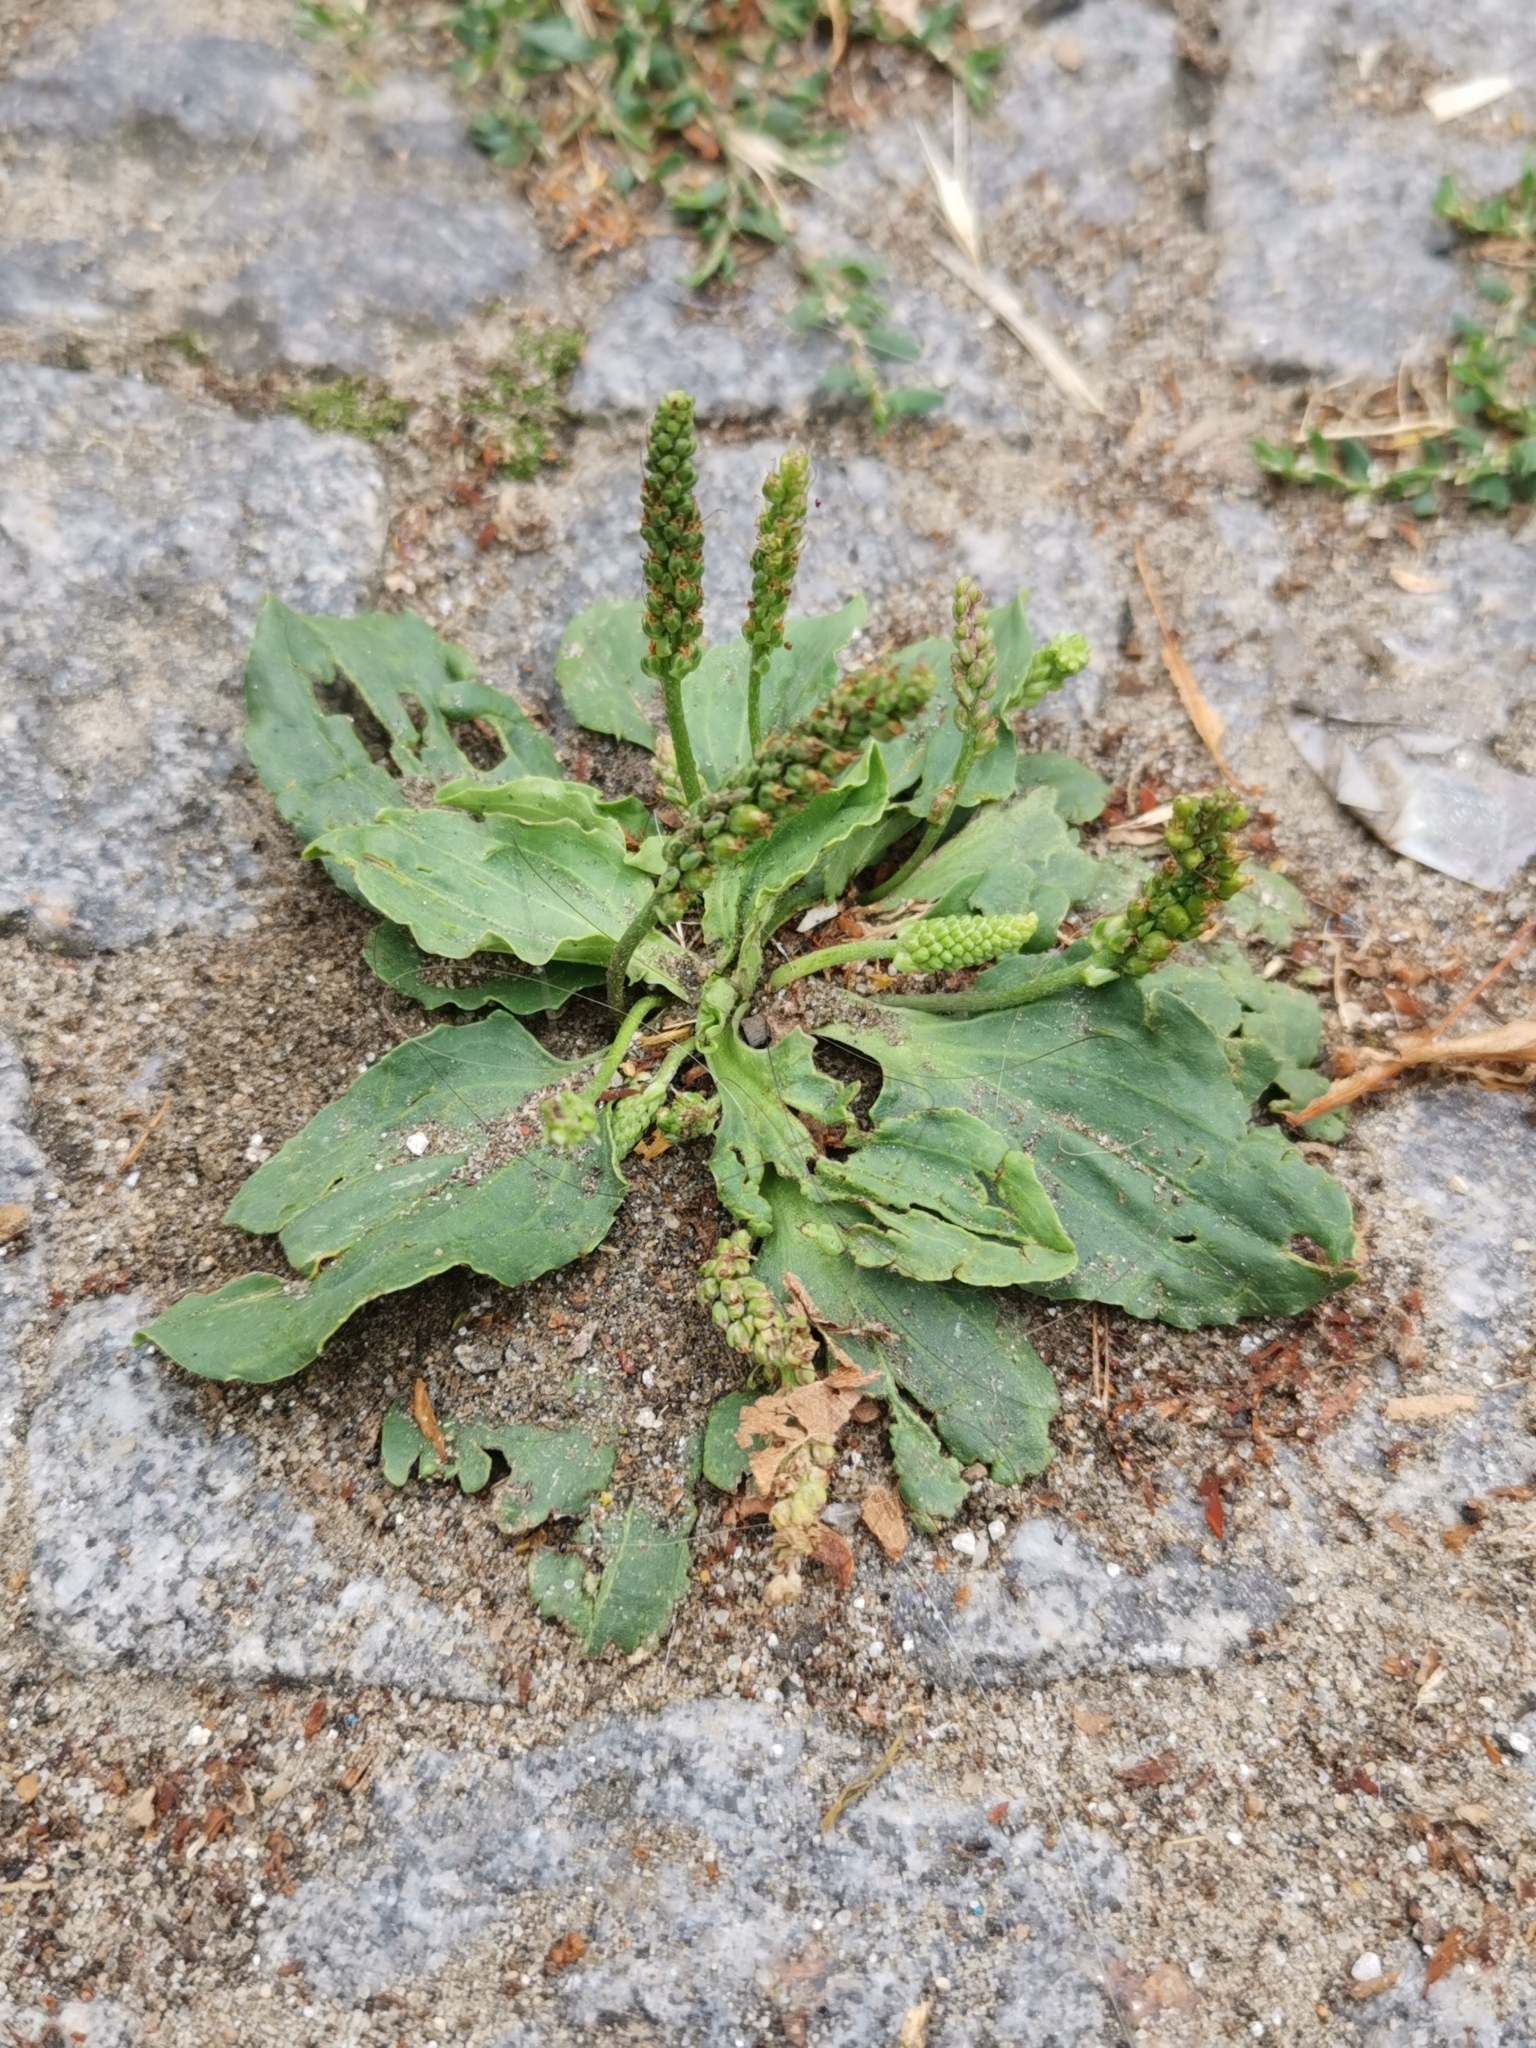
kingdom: Plantae
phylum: Tracheophyta
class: Magnoliopsida
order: Lamiales
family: Plantaginaceae
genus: Plantago
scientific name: Plantago major
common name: Common plantain
